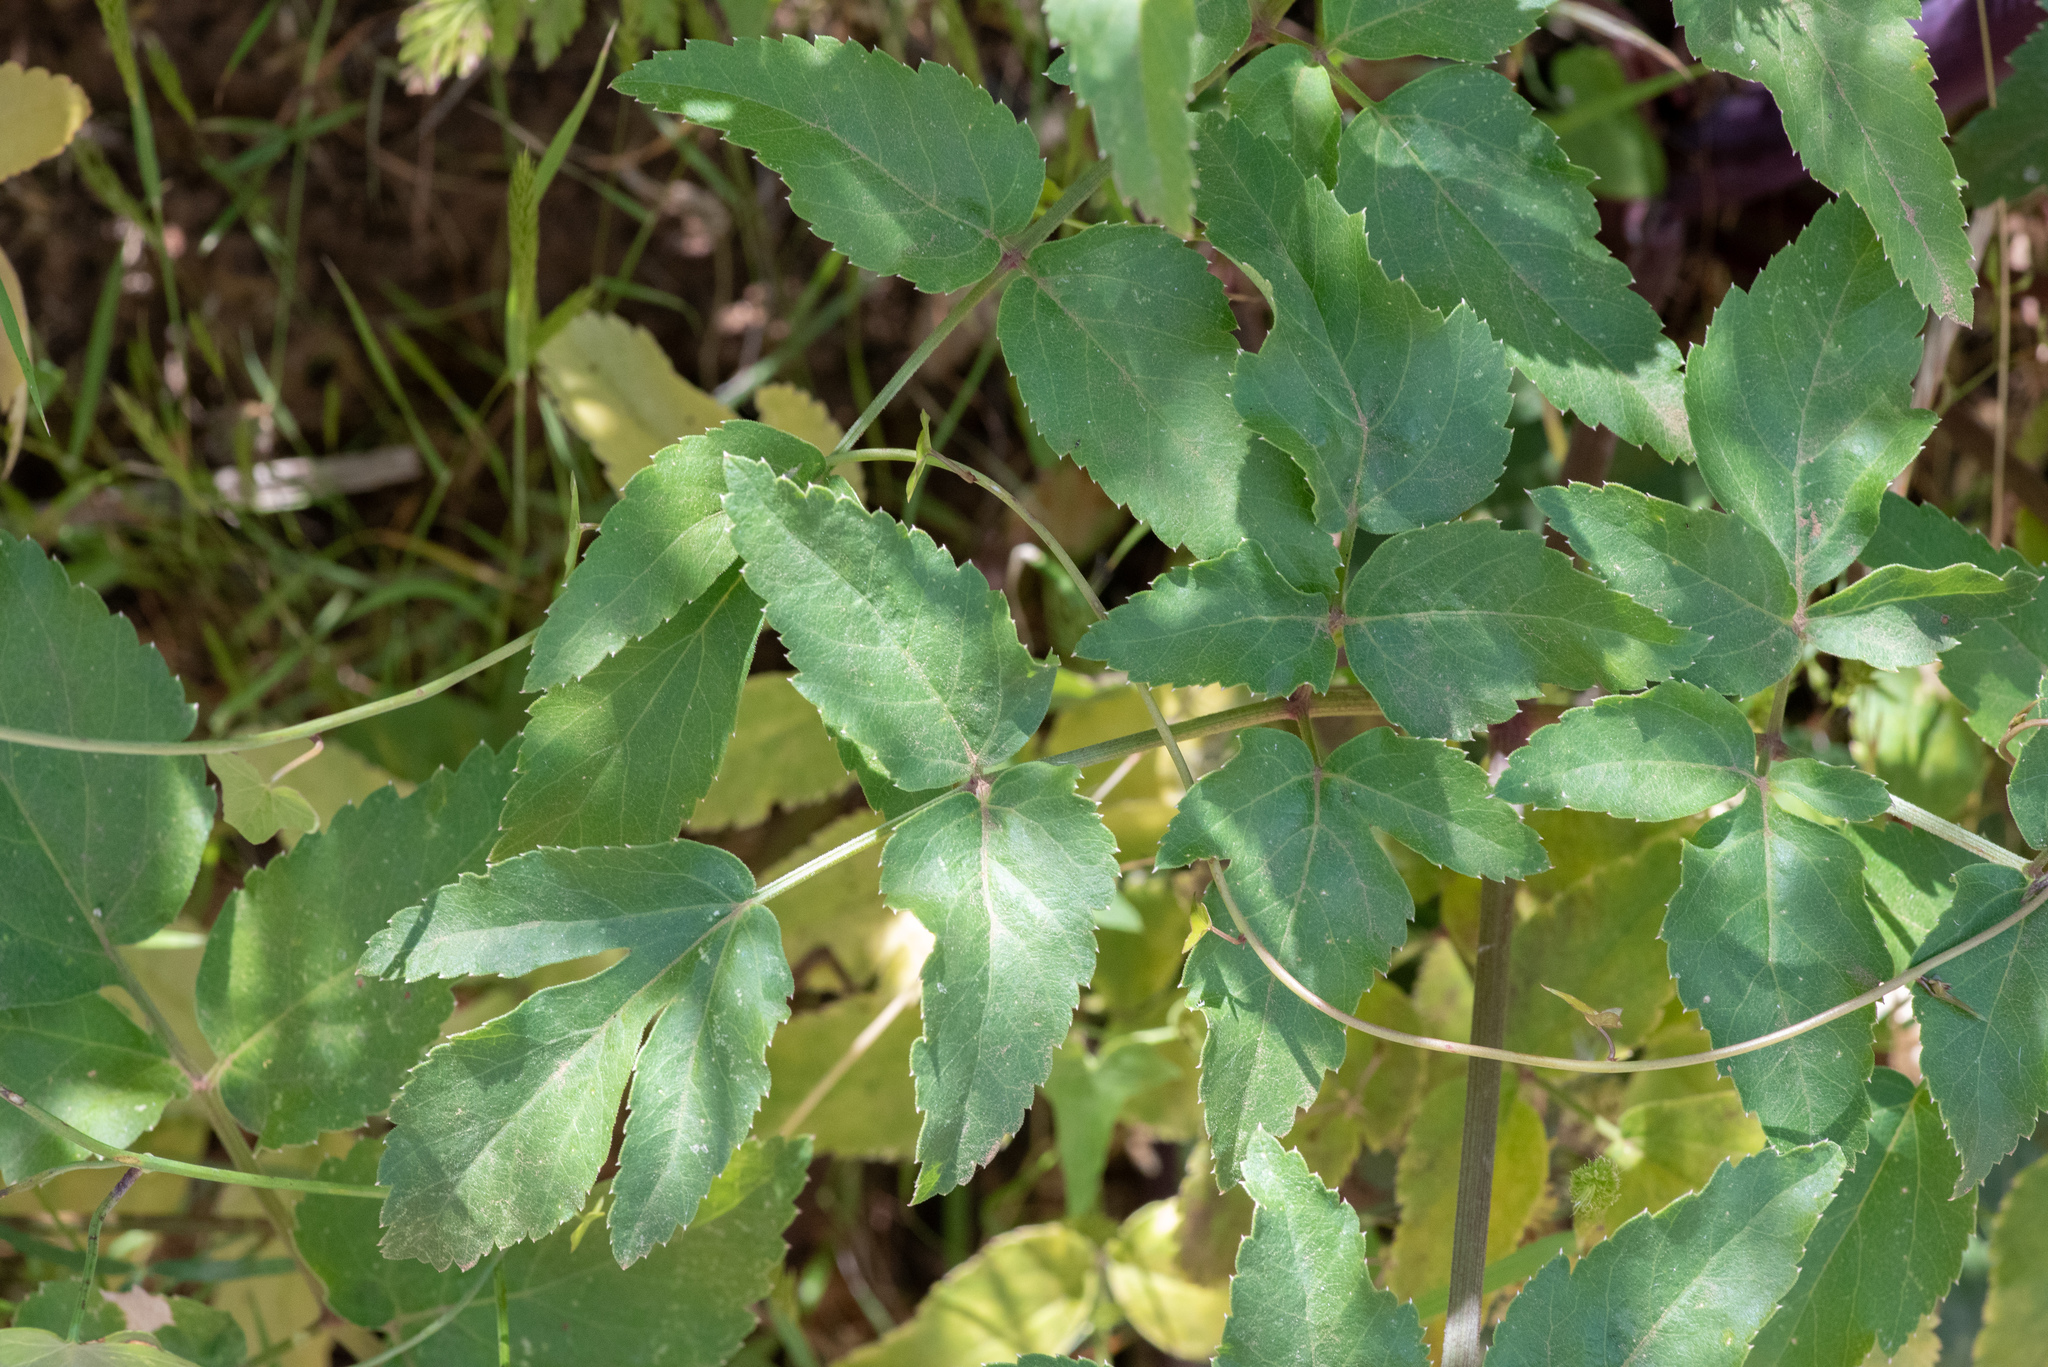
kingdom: Plantae
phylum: Tracheophyta
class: Magnoliopsida
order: Apiales
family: Apiaceae
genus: Angelica
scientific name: Angelica californica
